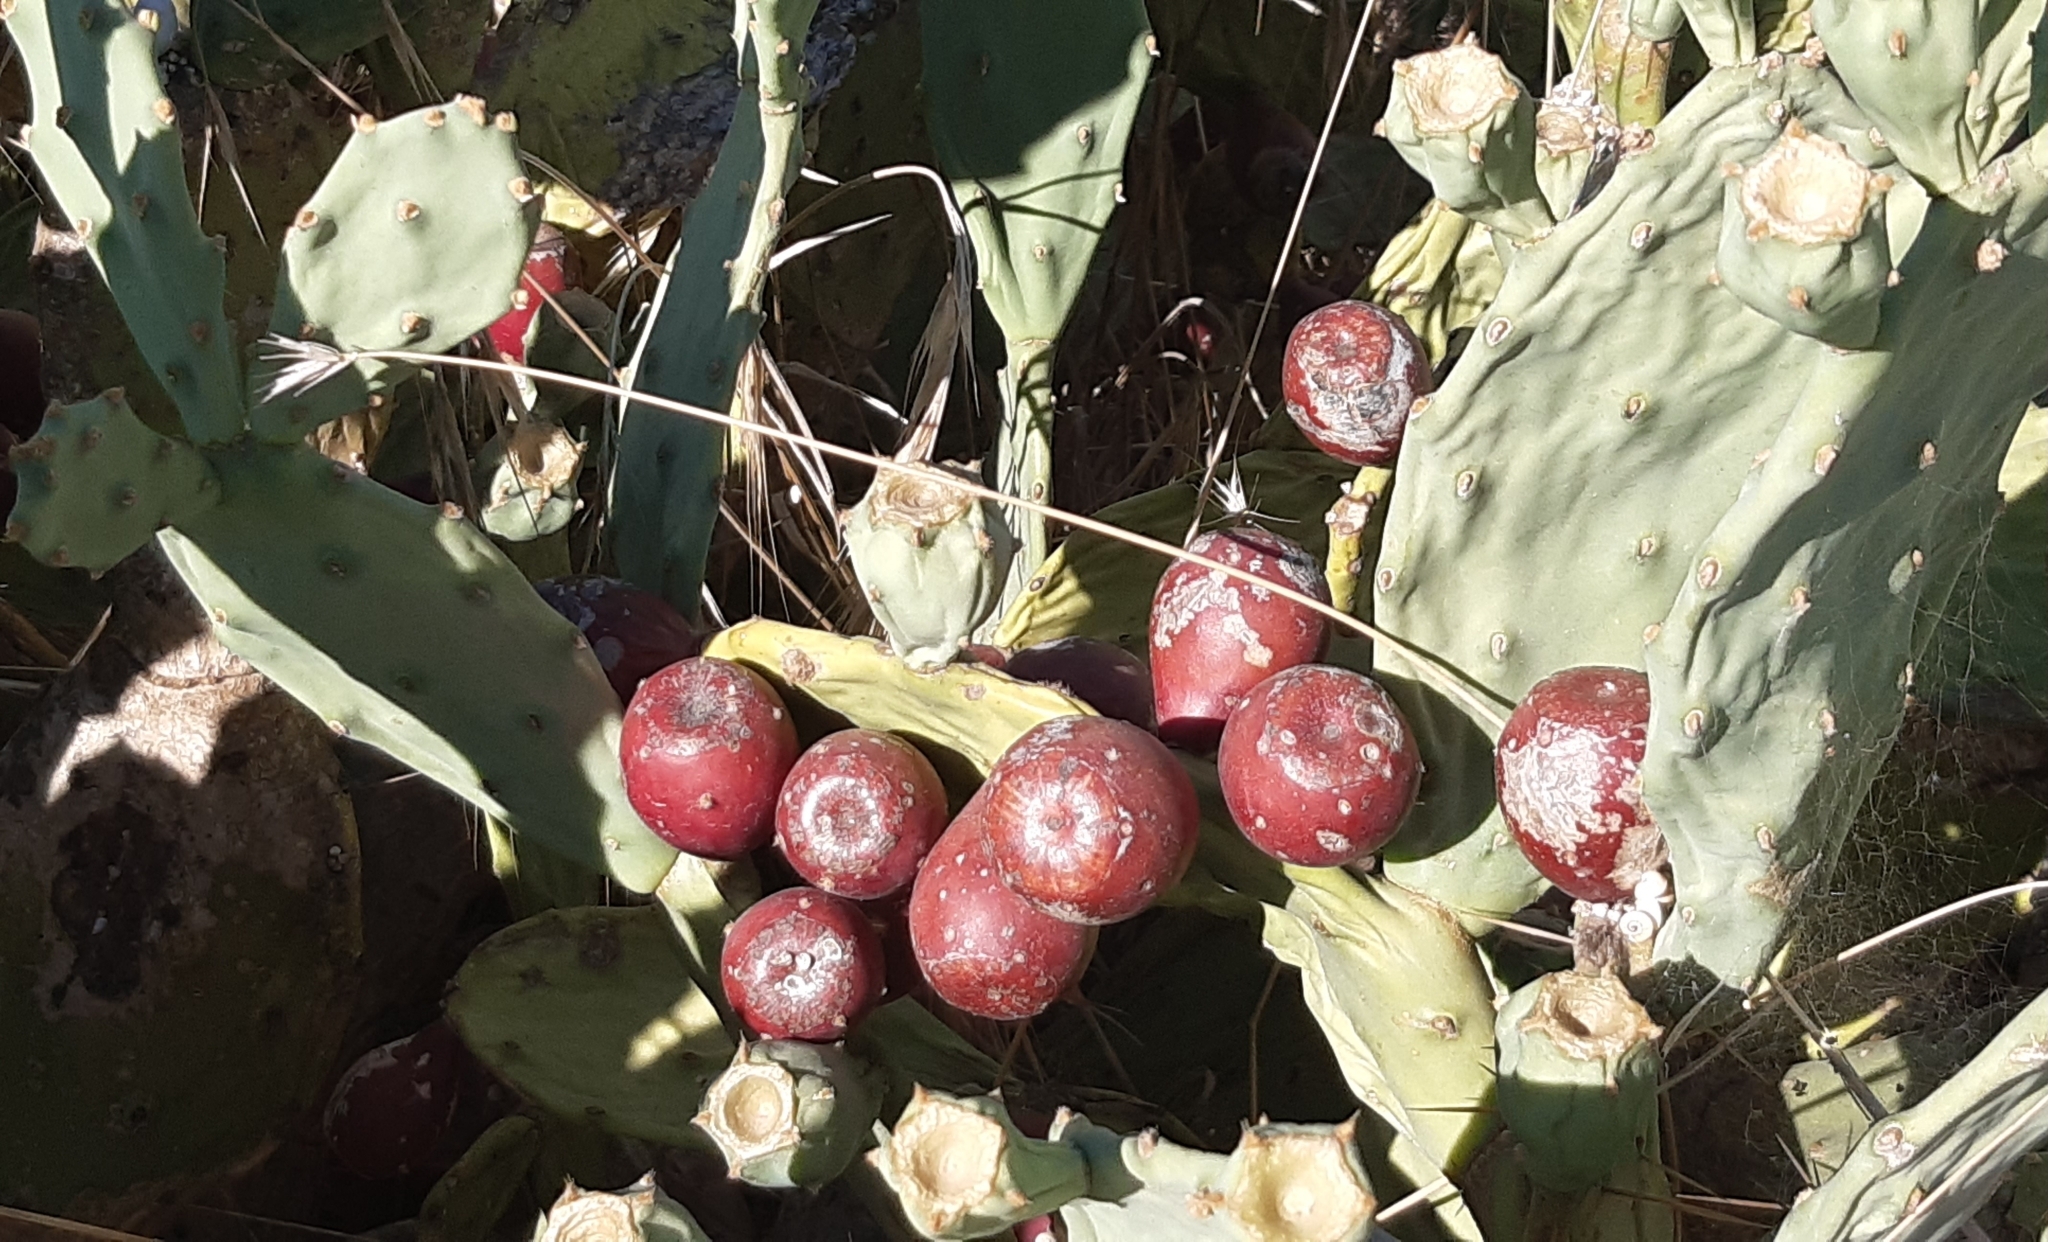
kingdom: Plantae
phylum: Tracheophyta
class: Magnoliopsida
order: Caryophyllales
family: Cactaceae
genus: Opuntia
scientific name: Opuntia stricta
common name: Erect pricklypear
